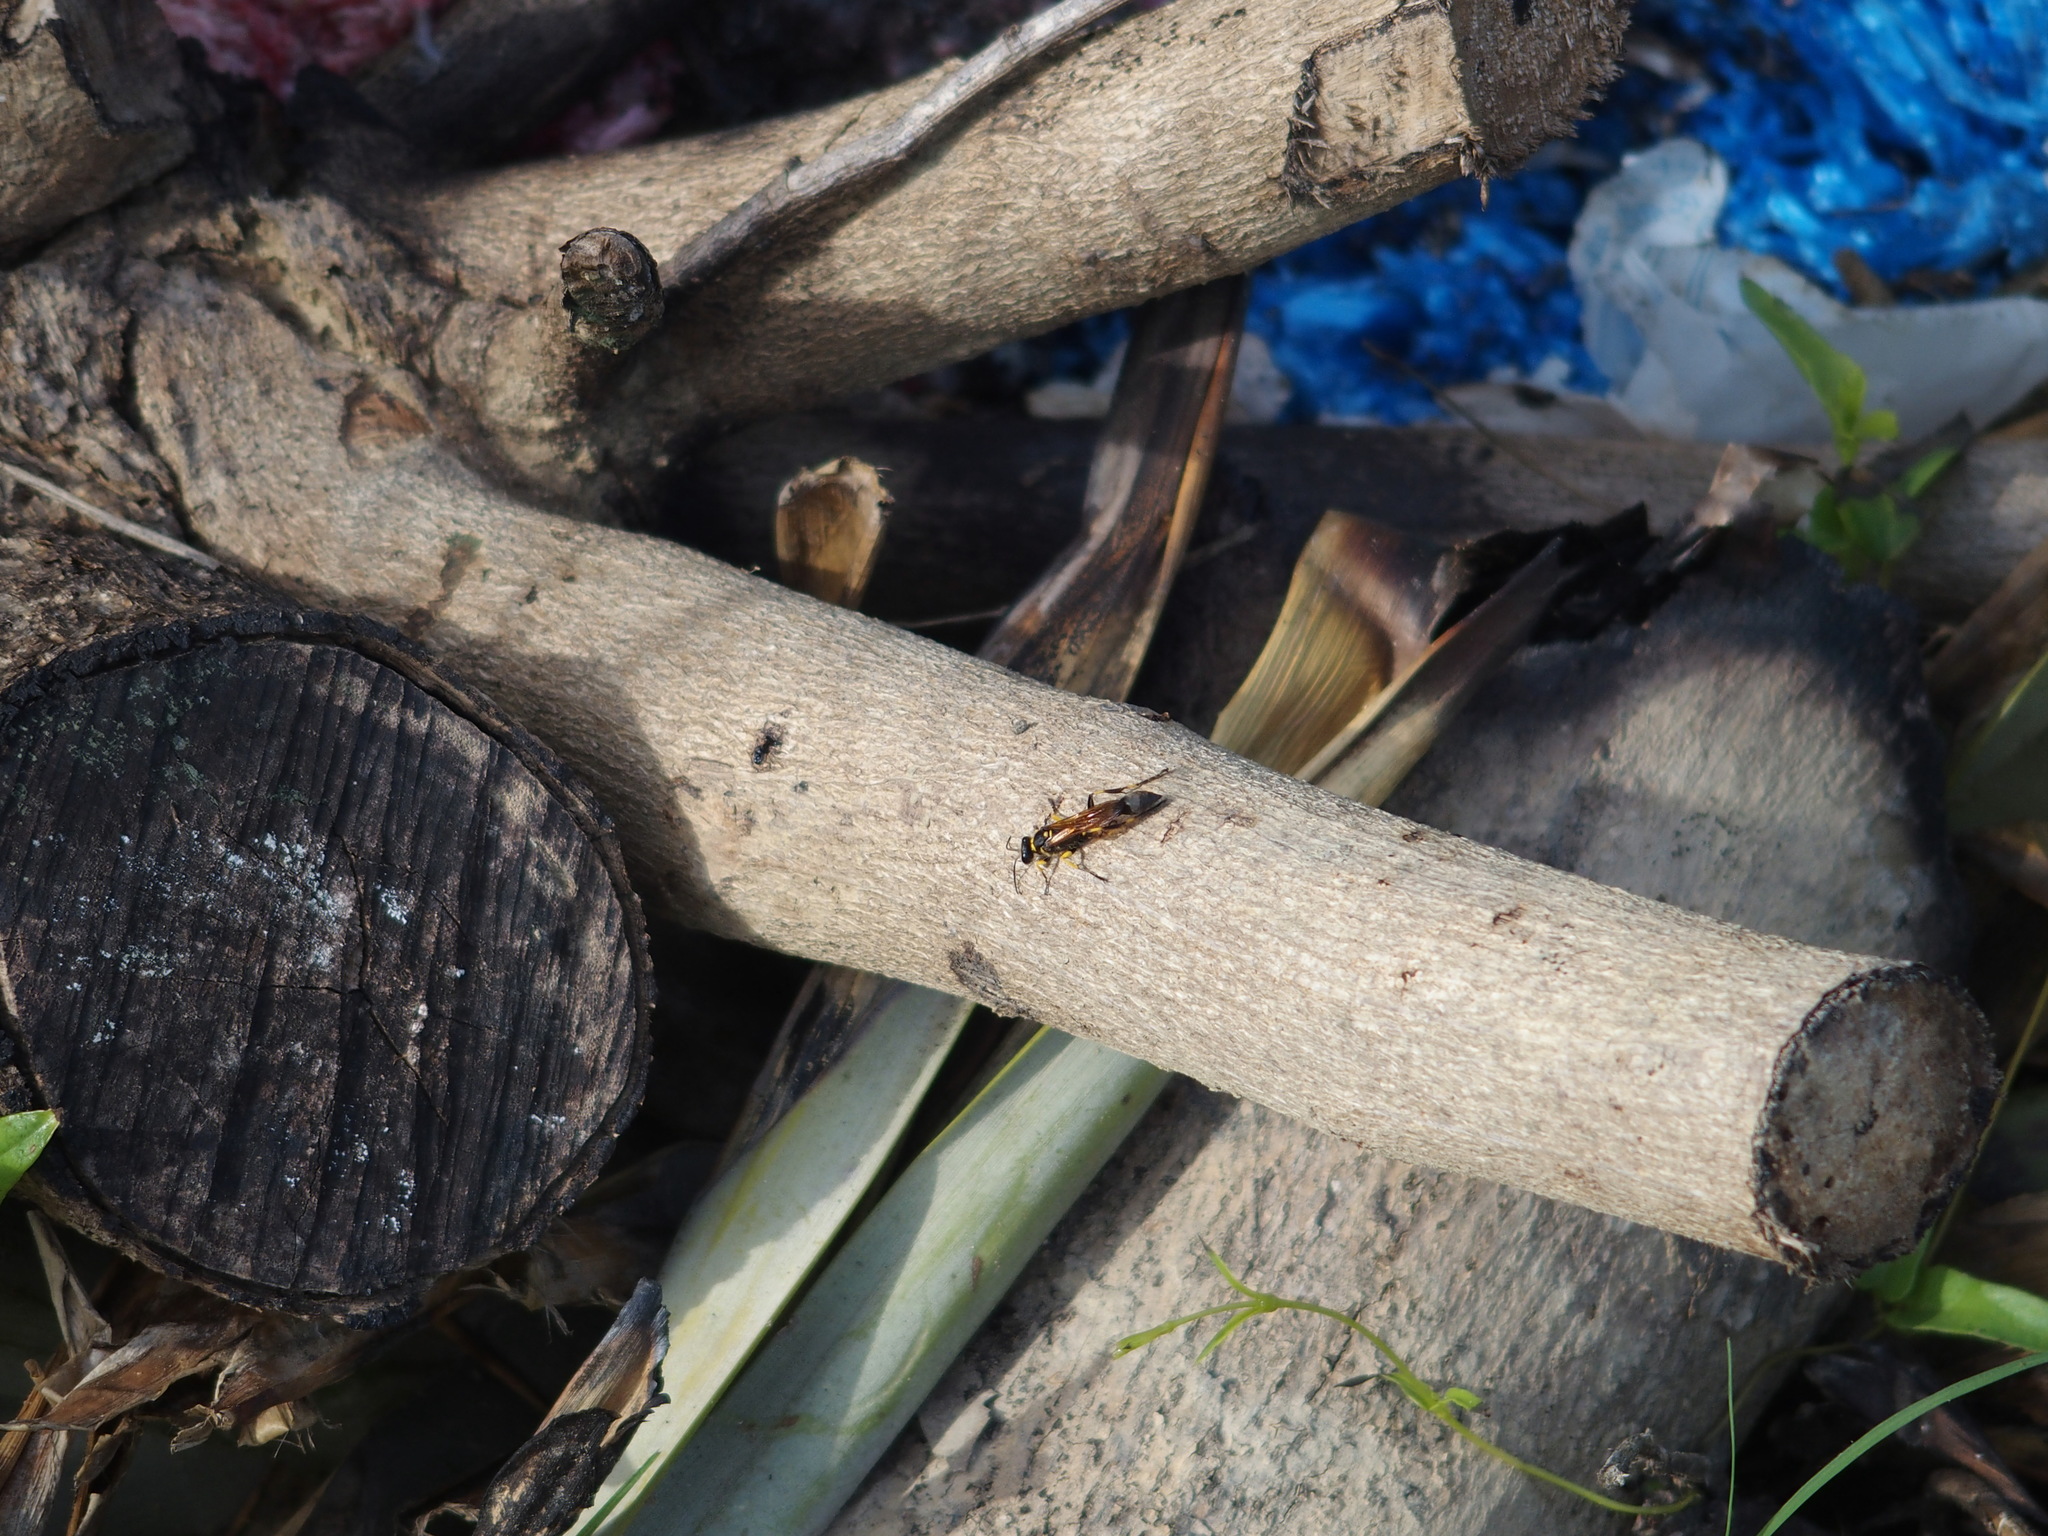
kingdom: Animalia
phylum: Arthropoda
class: Insecta
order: Hymenoptera
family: Sphecidae
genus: Sceliphron
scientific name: Sceliphron madraspatanum
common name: Mud dauber
